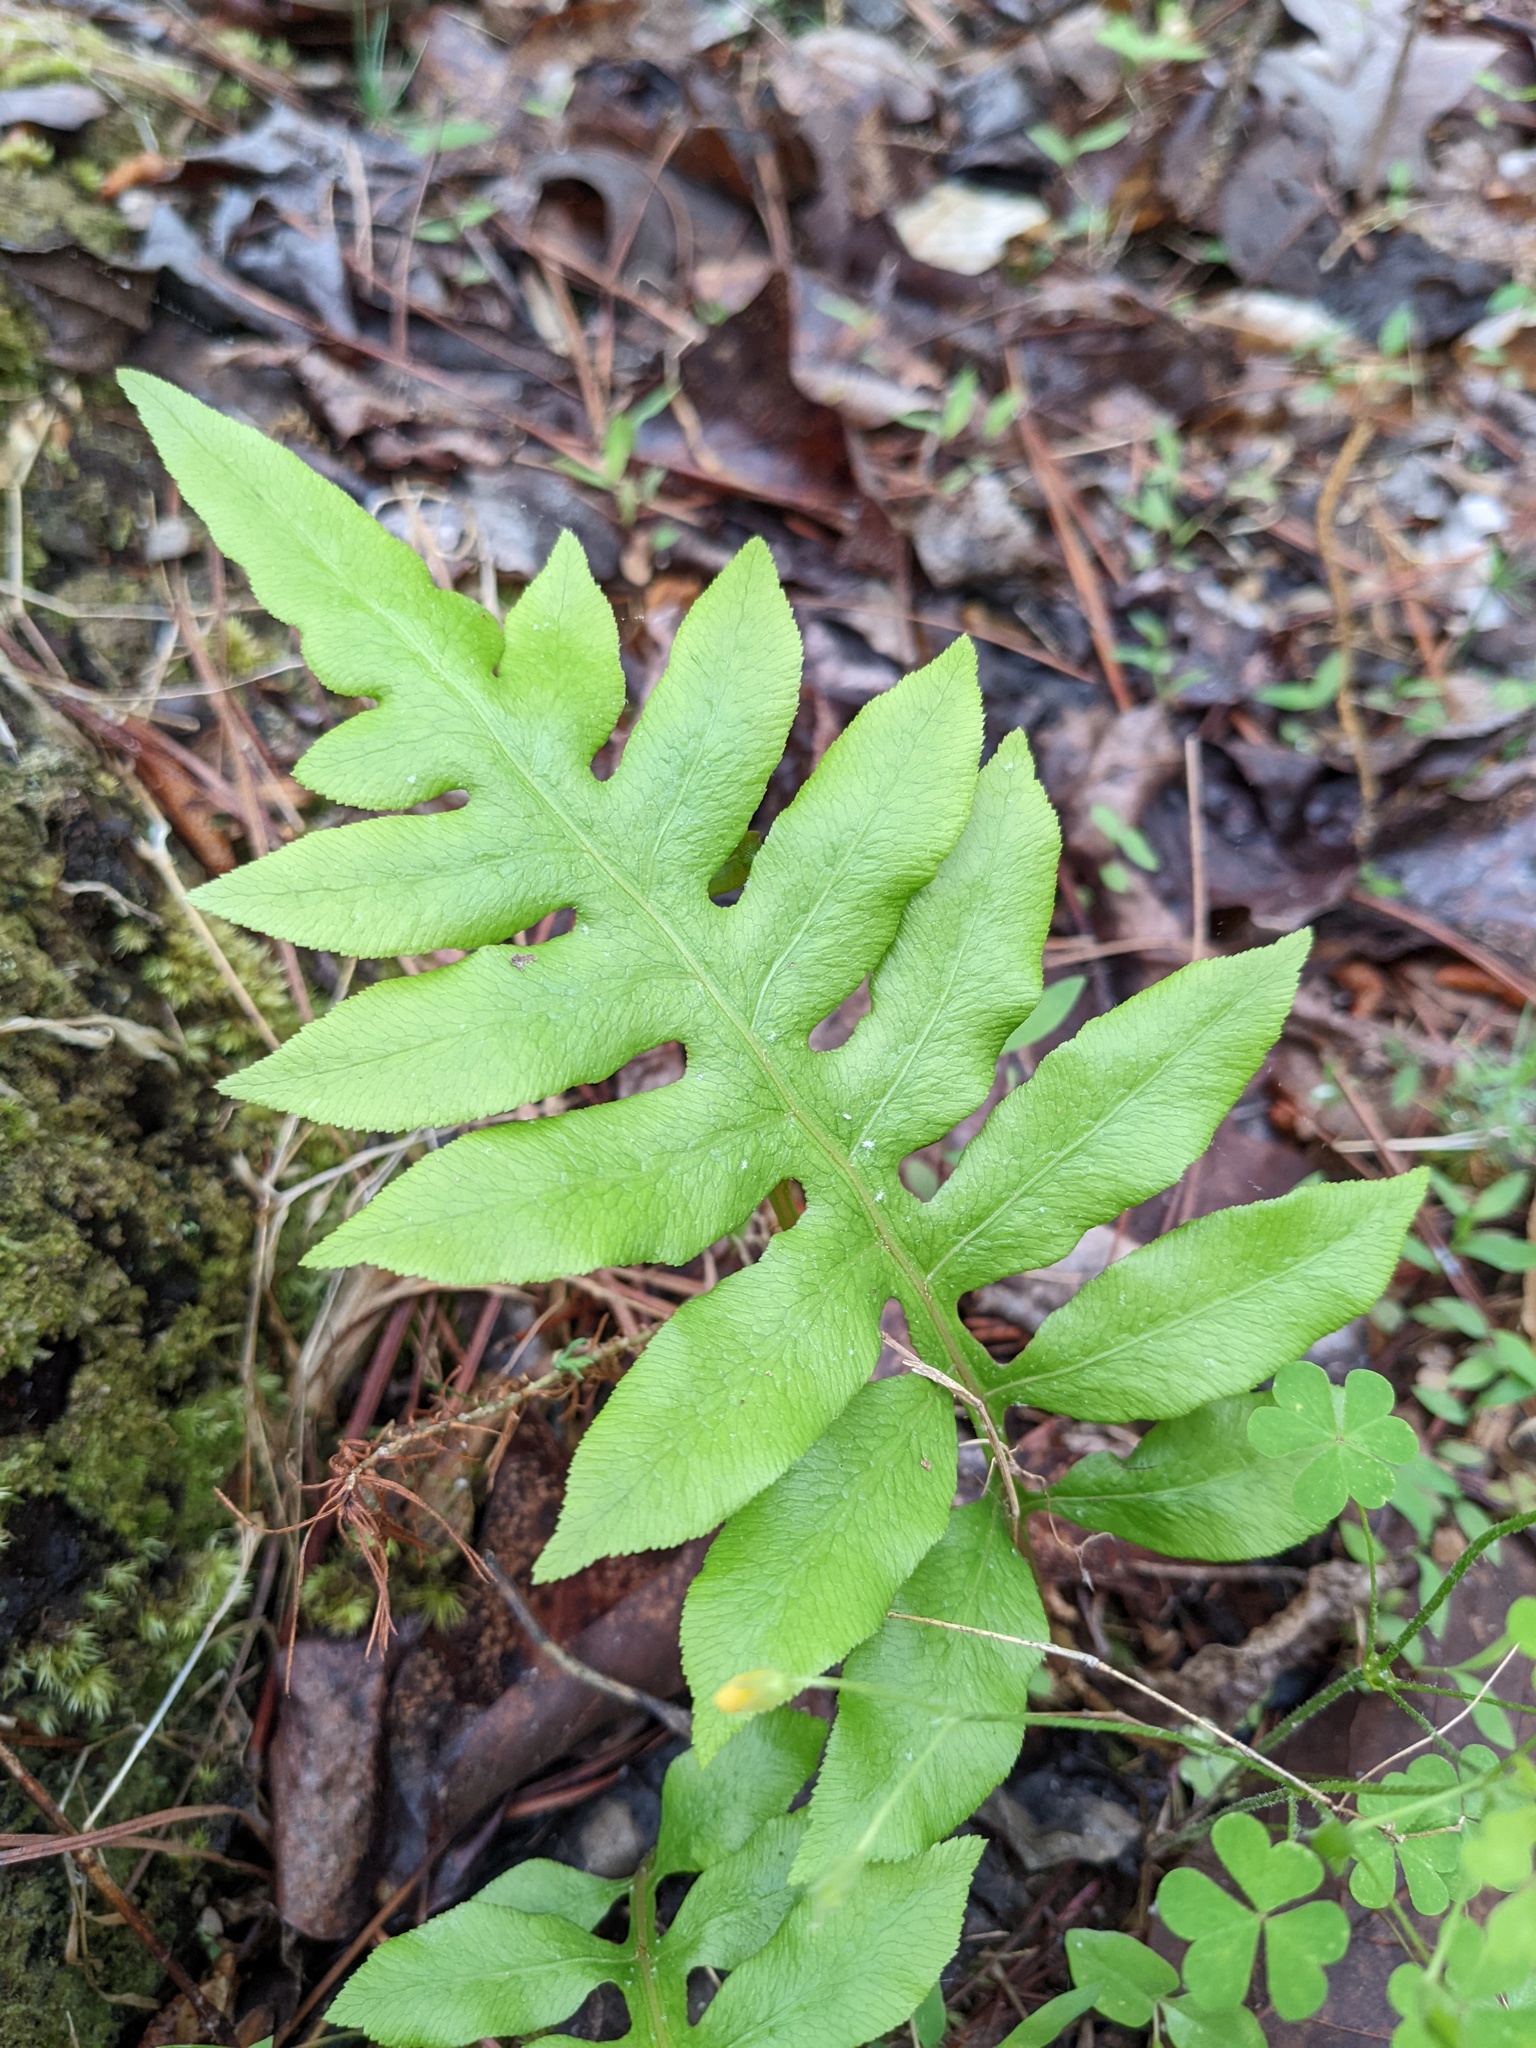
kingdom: Plantae
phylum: Tracheophyta
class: Polypodiopsida
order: Polypodiales
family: Blechnaceae
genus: Lorinseria
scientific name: Lorinseria areolata
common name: Dwarf chain fern
